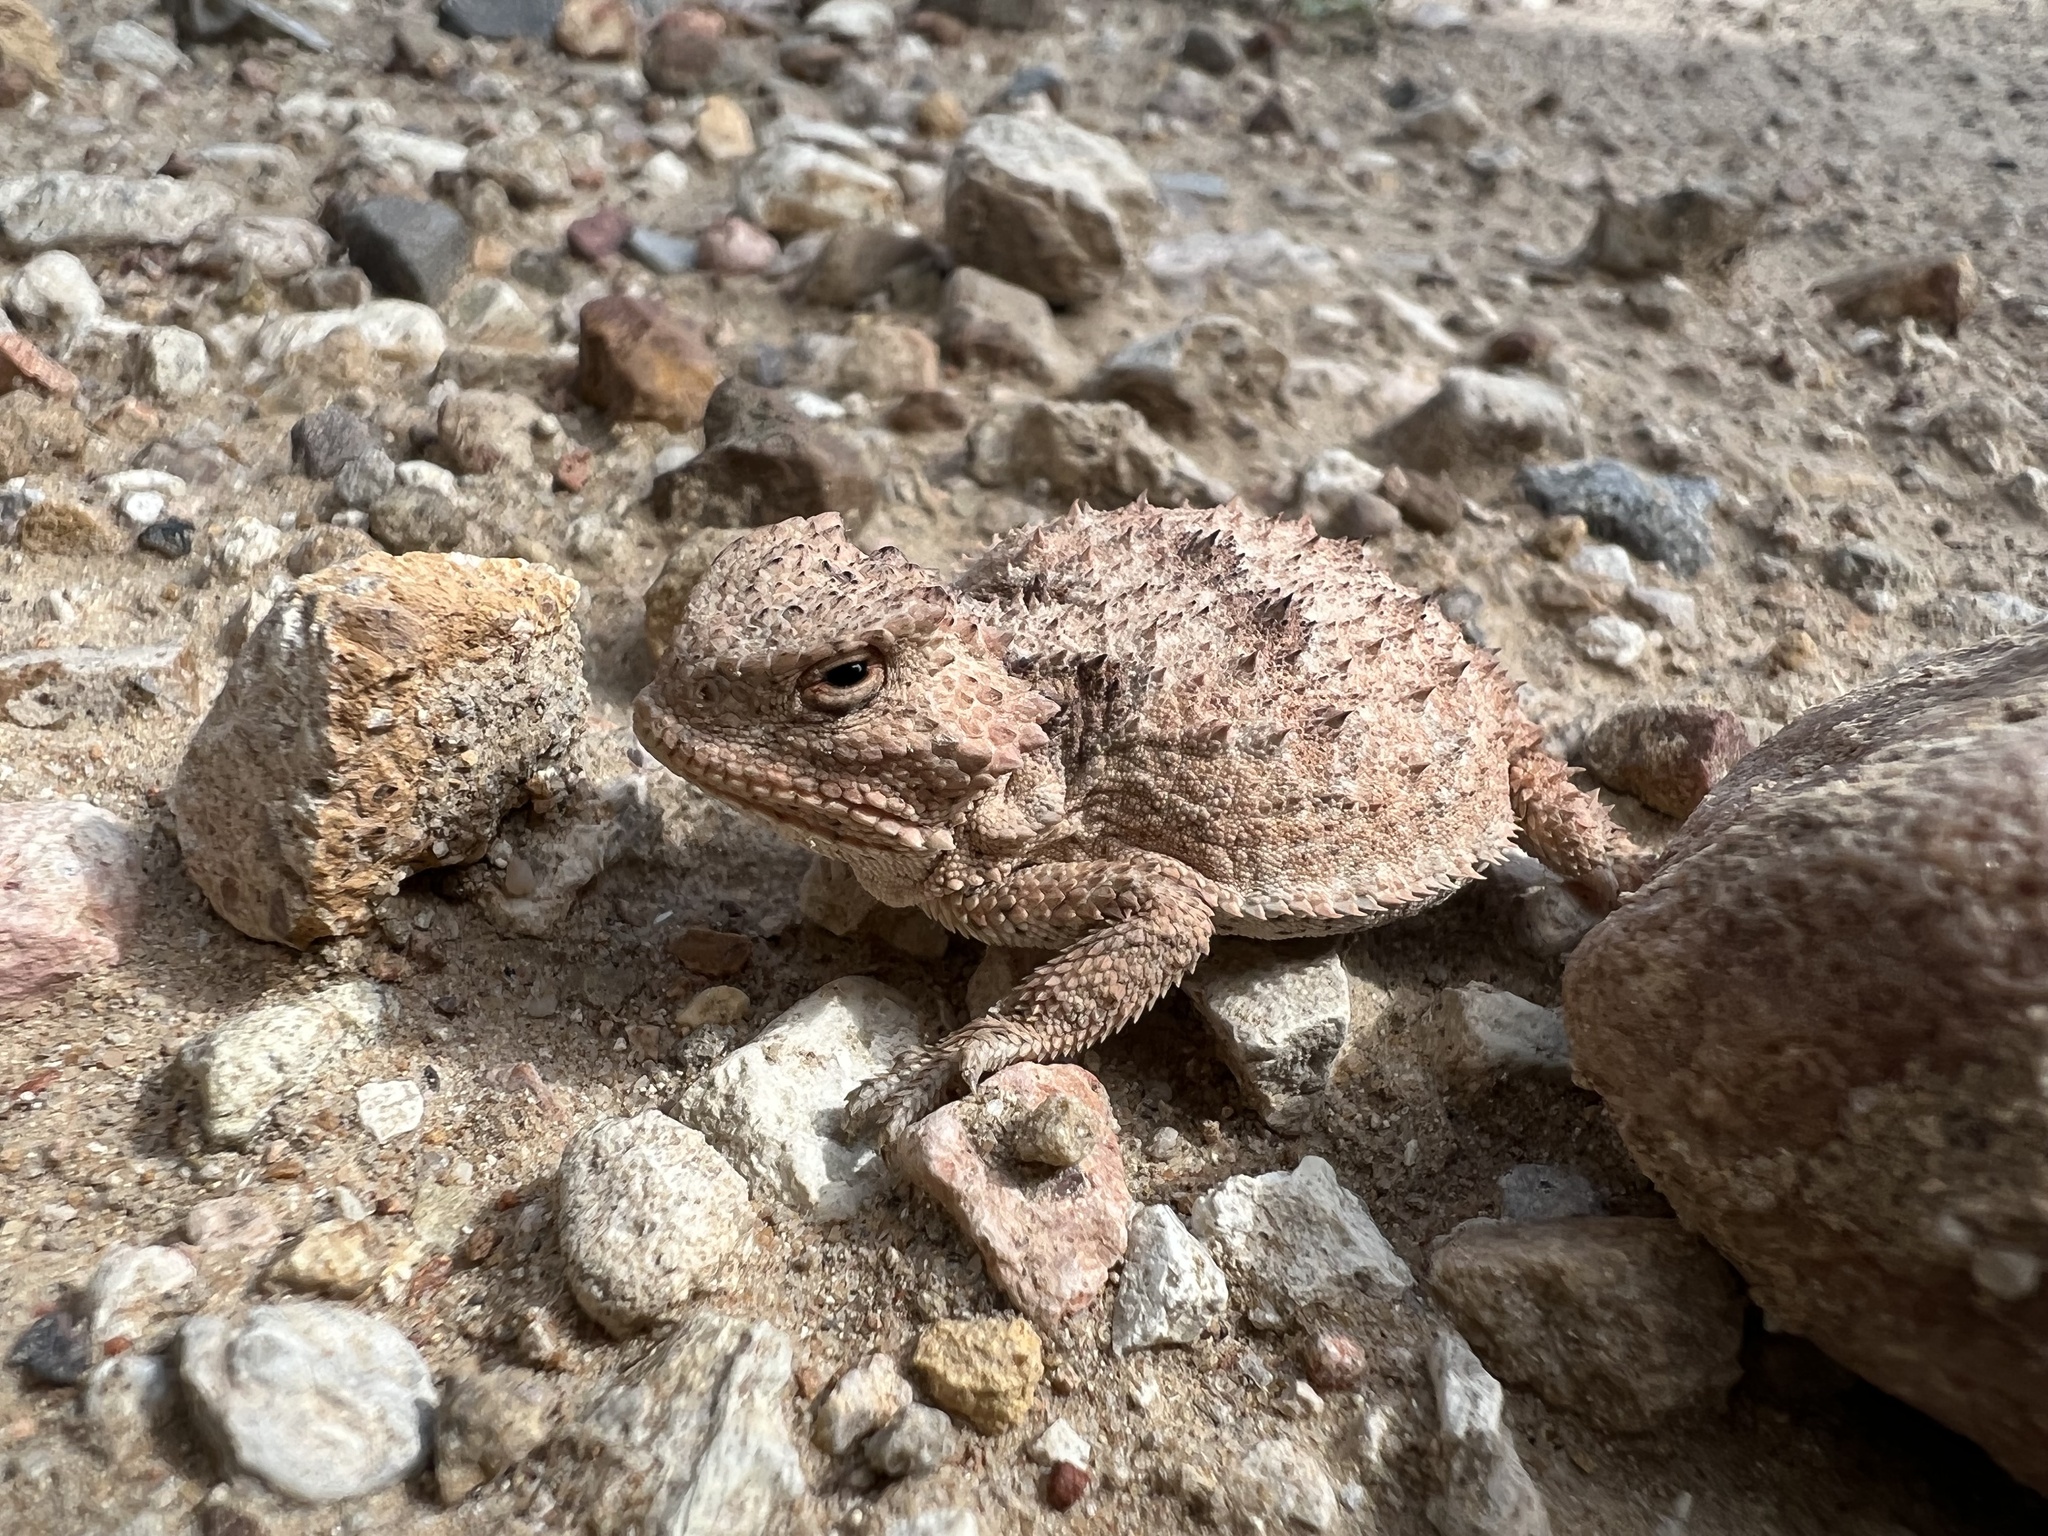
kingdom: Animalia
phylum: Chordata
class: Squamata
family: Phrynosomatidae
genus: Phrynosoma
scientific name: Phrynosoma hernandesi
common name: Greater short-horned lizard
